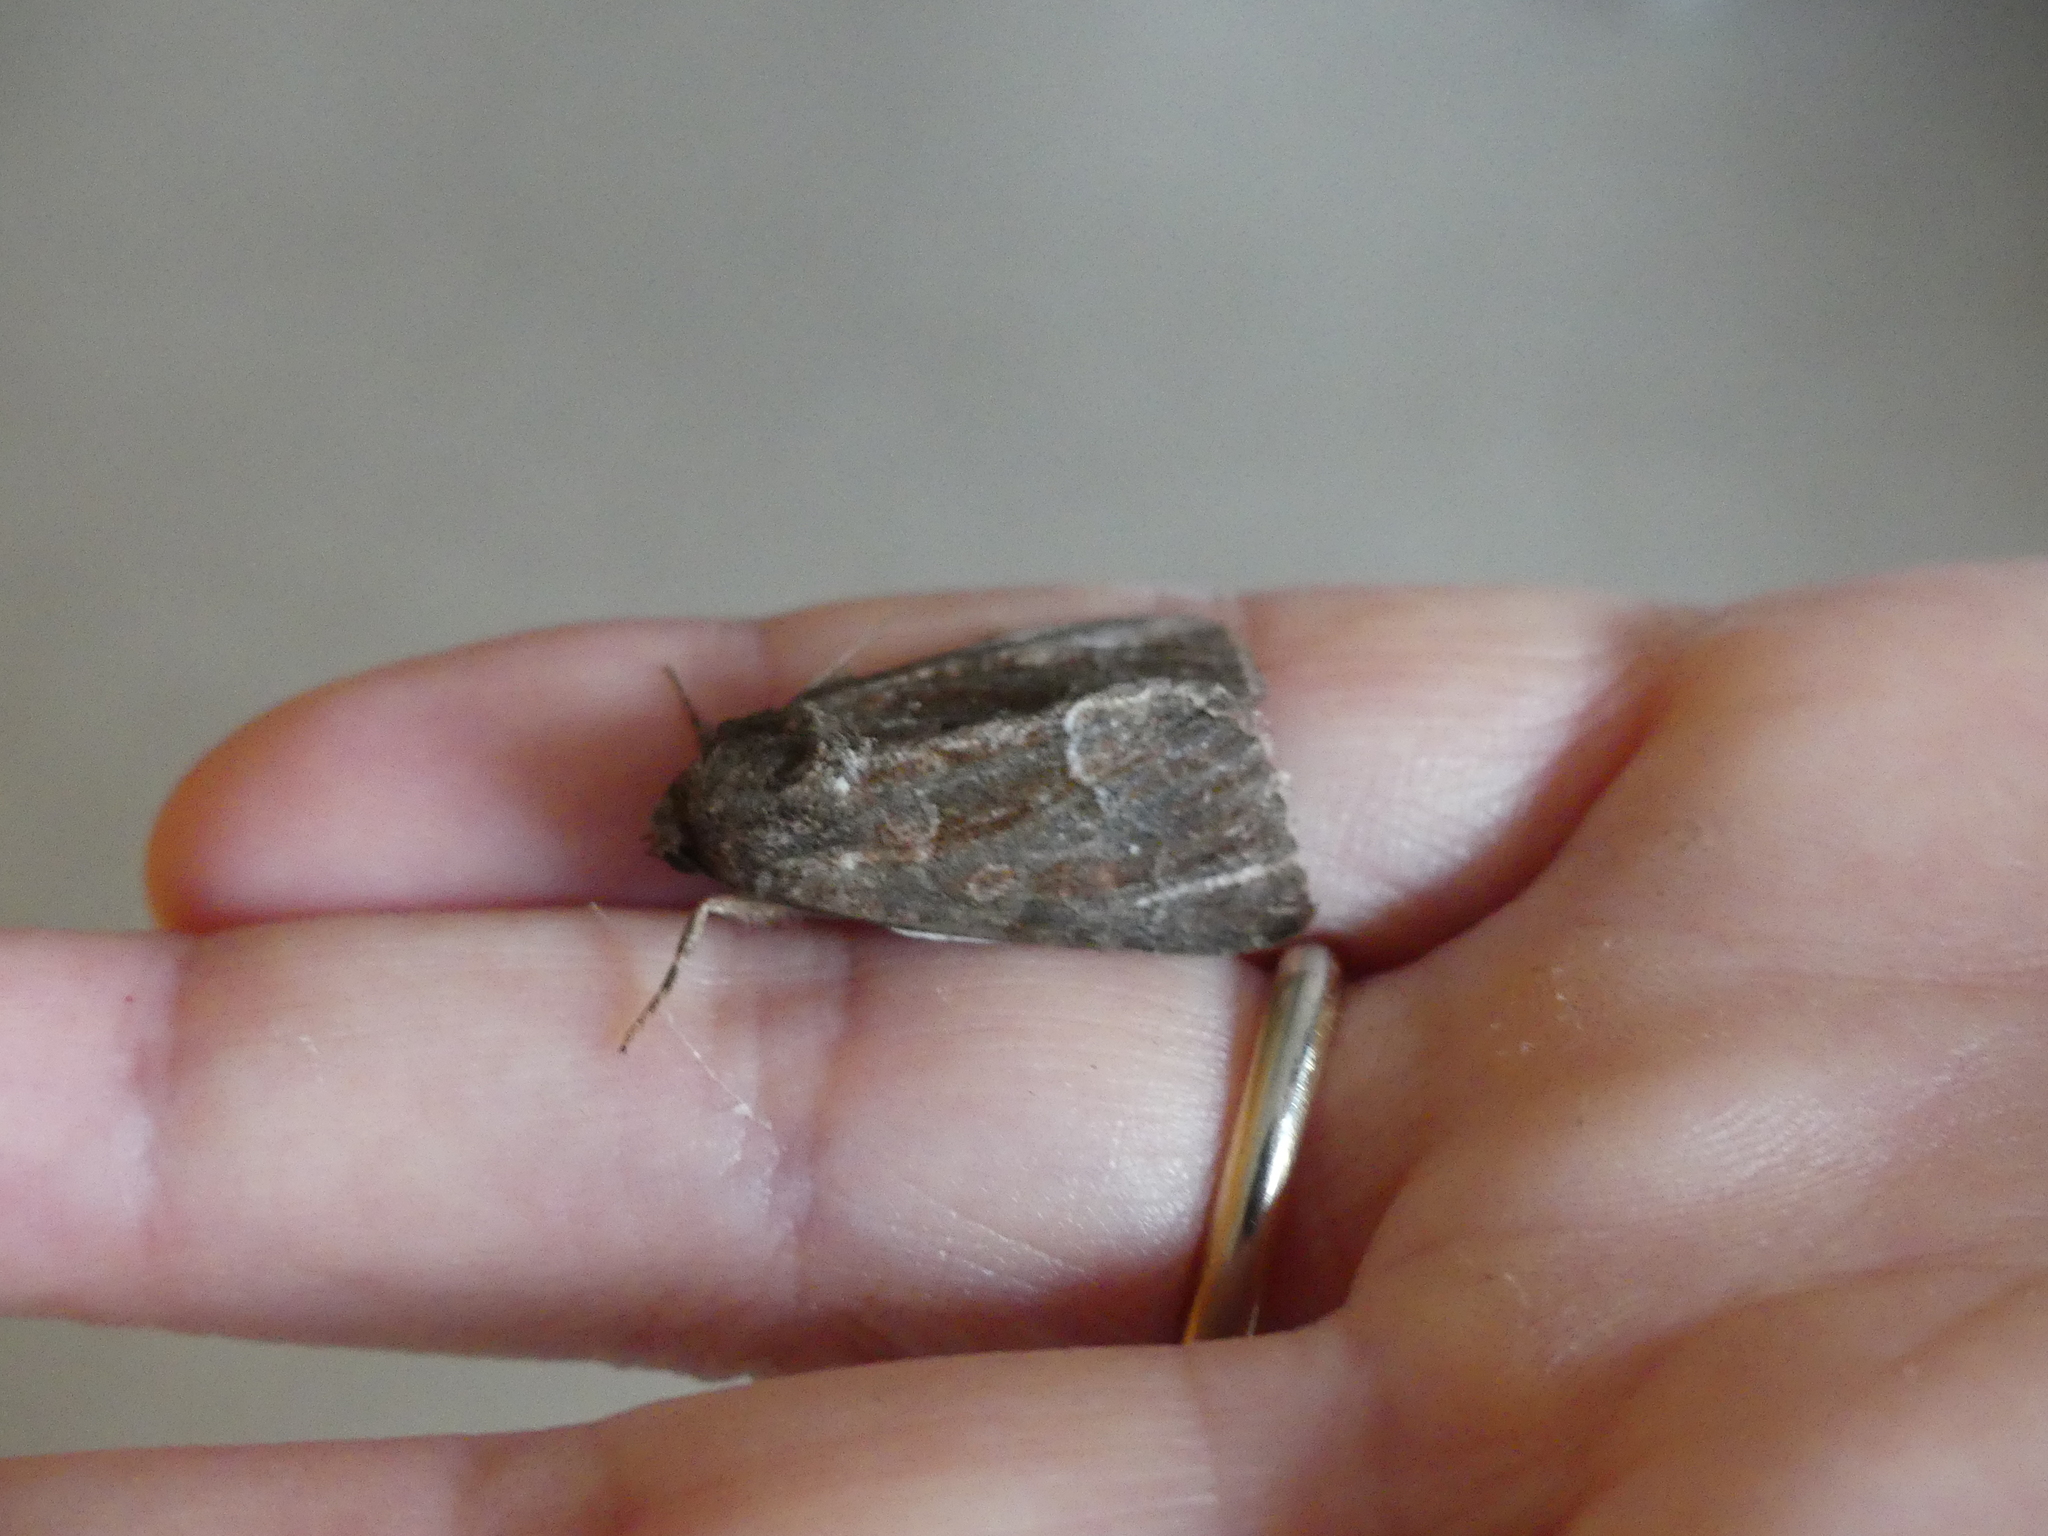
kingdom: Animalia
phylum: Arthropoda
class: Insecta
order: Lepidoptera
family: Noctuidae
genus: Thalpophila
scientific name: Thalpophila matura
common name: Straw underwing
